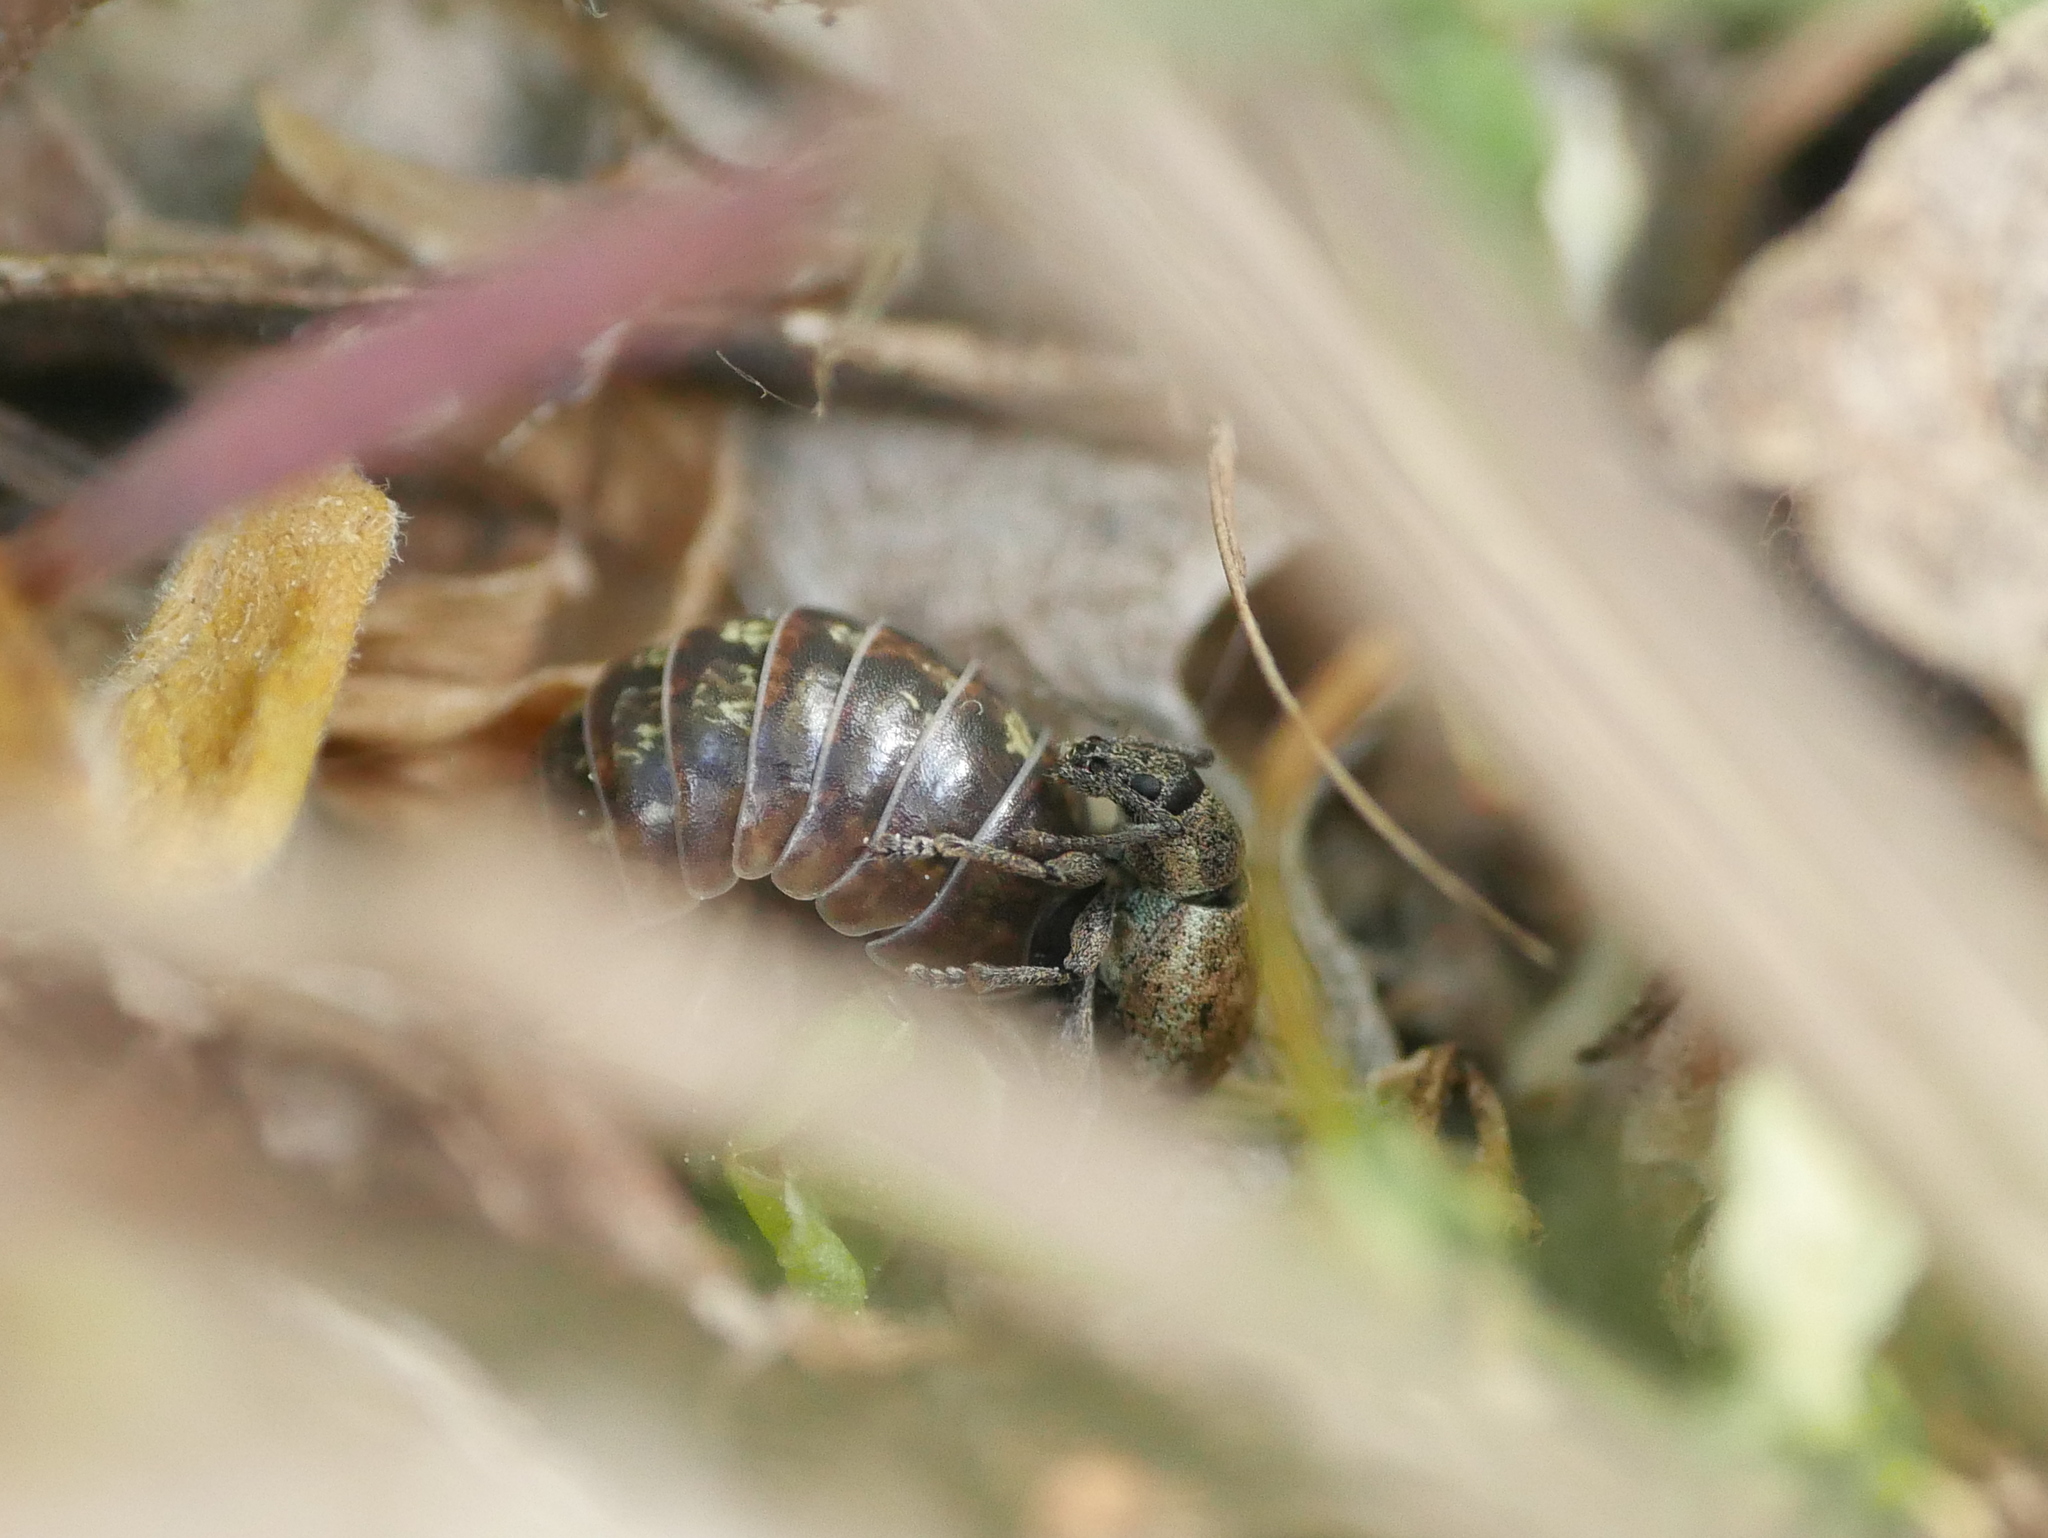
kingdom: Animalia
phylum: Arthropoda
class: Malacostraca
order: Isopoda
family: Armadillidiidae
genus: Armadillidium
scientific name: Armadillidium vulgare
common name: Common pill woodlouse
